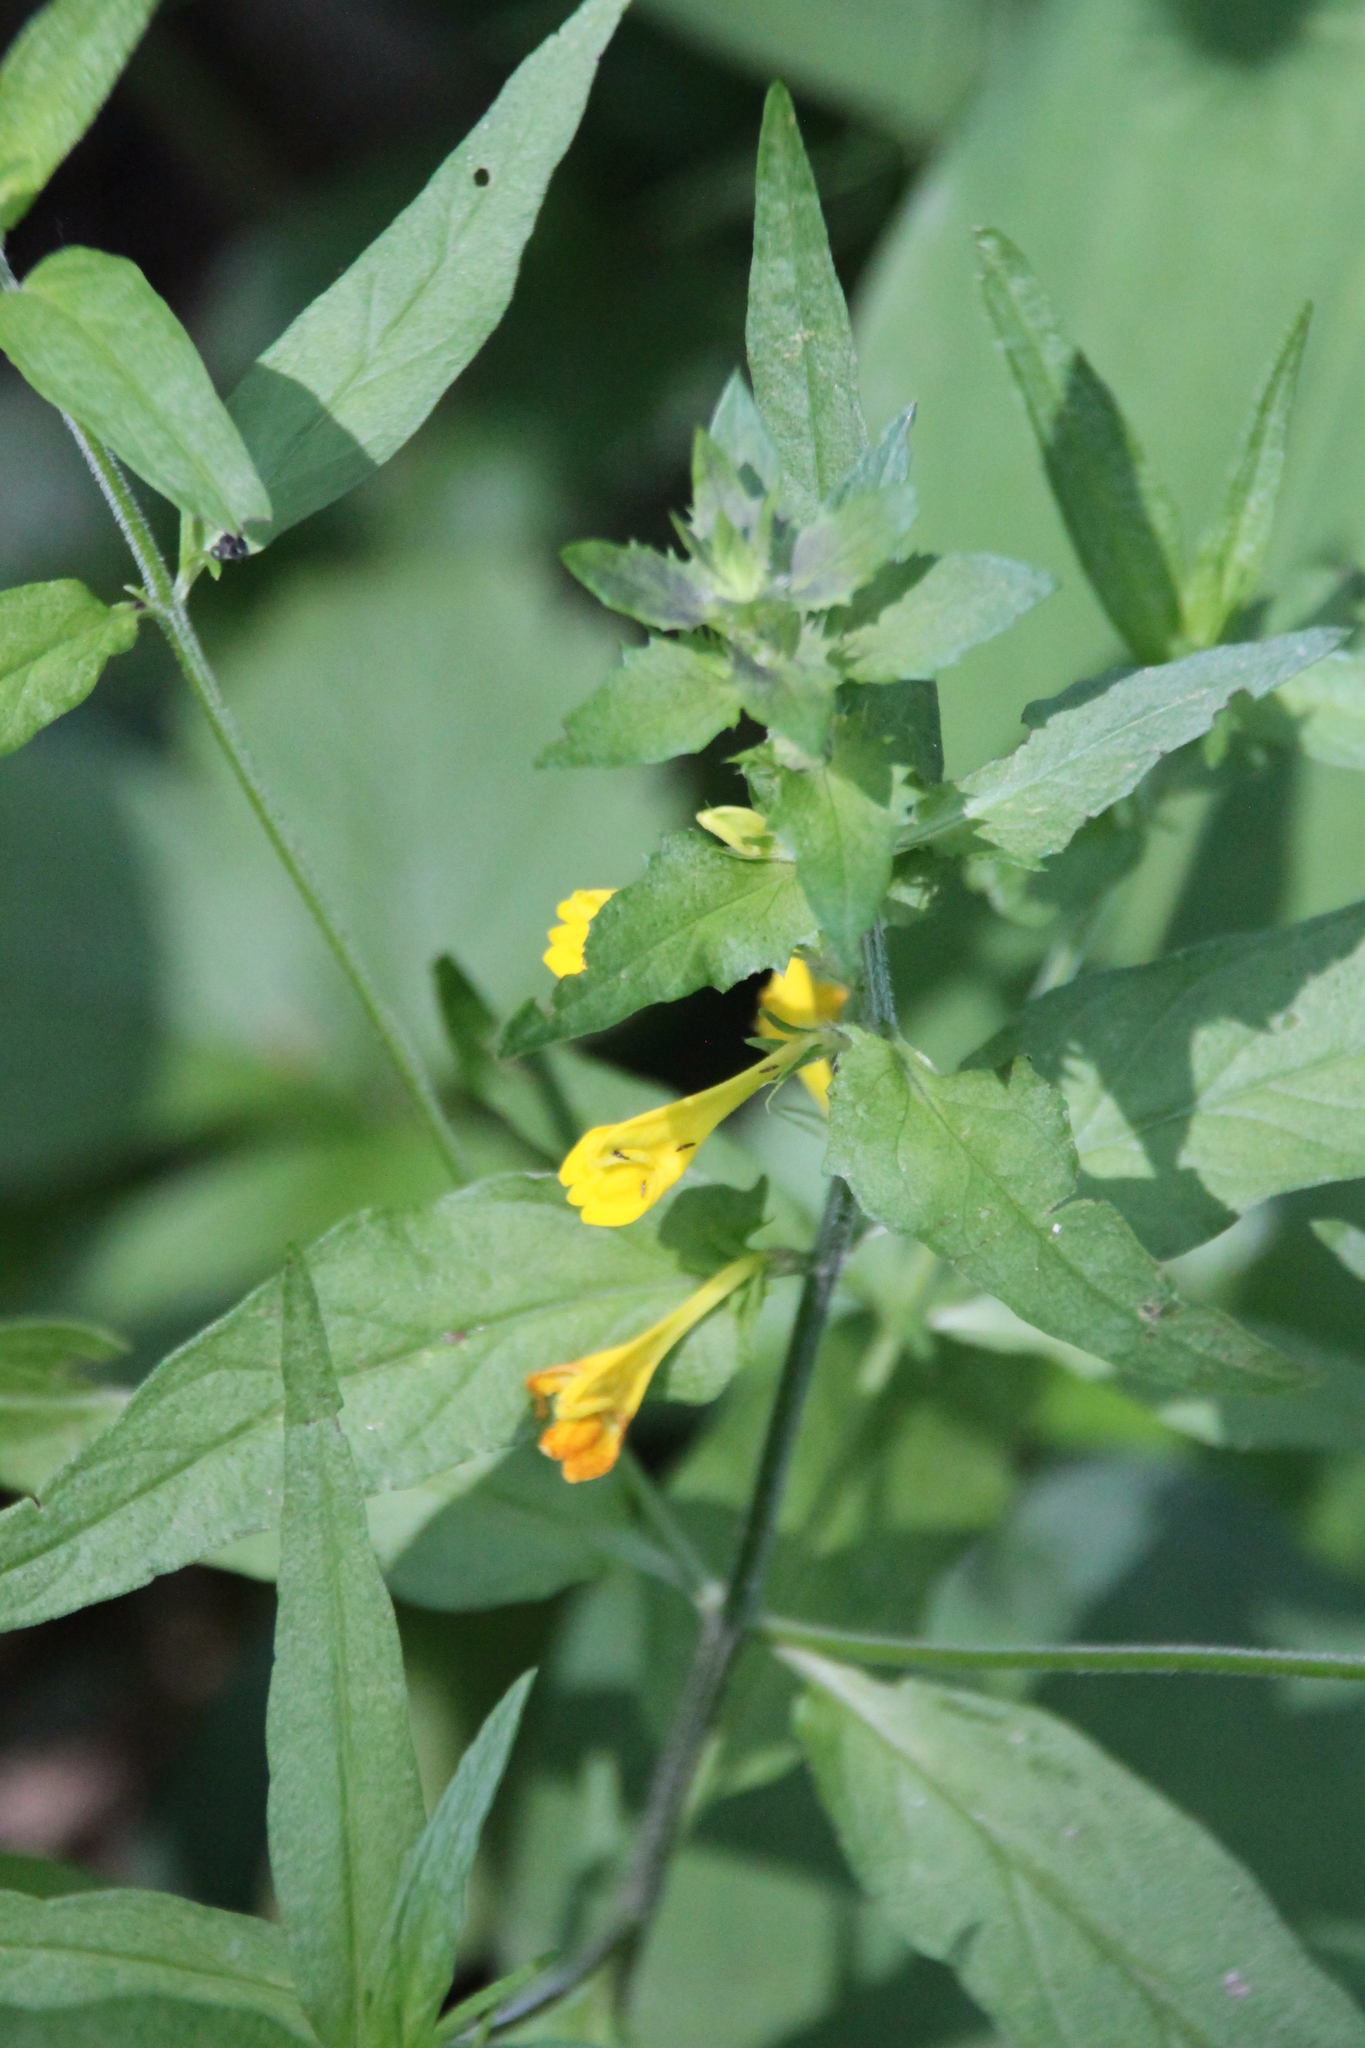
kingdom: Plantae
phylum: Tracheophyta
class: Magnoliopsida
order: Lamiales
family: Orobanchaceae
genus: Melampyrum
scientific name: Melampyrum nemorosum
